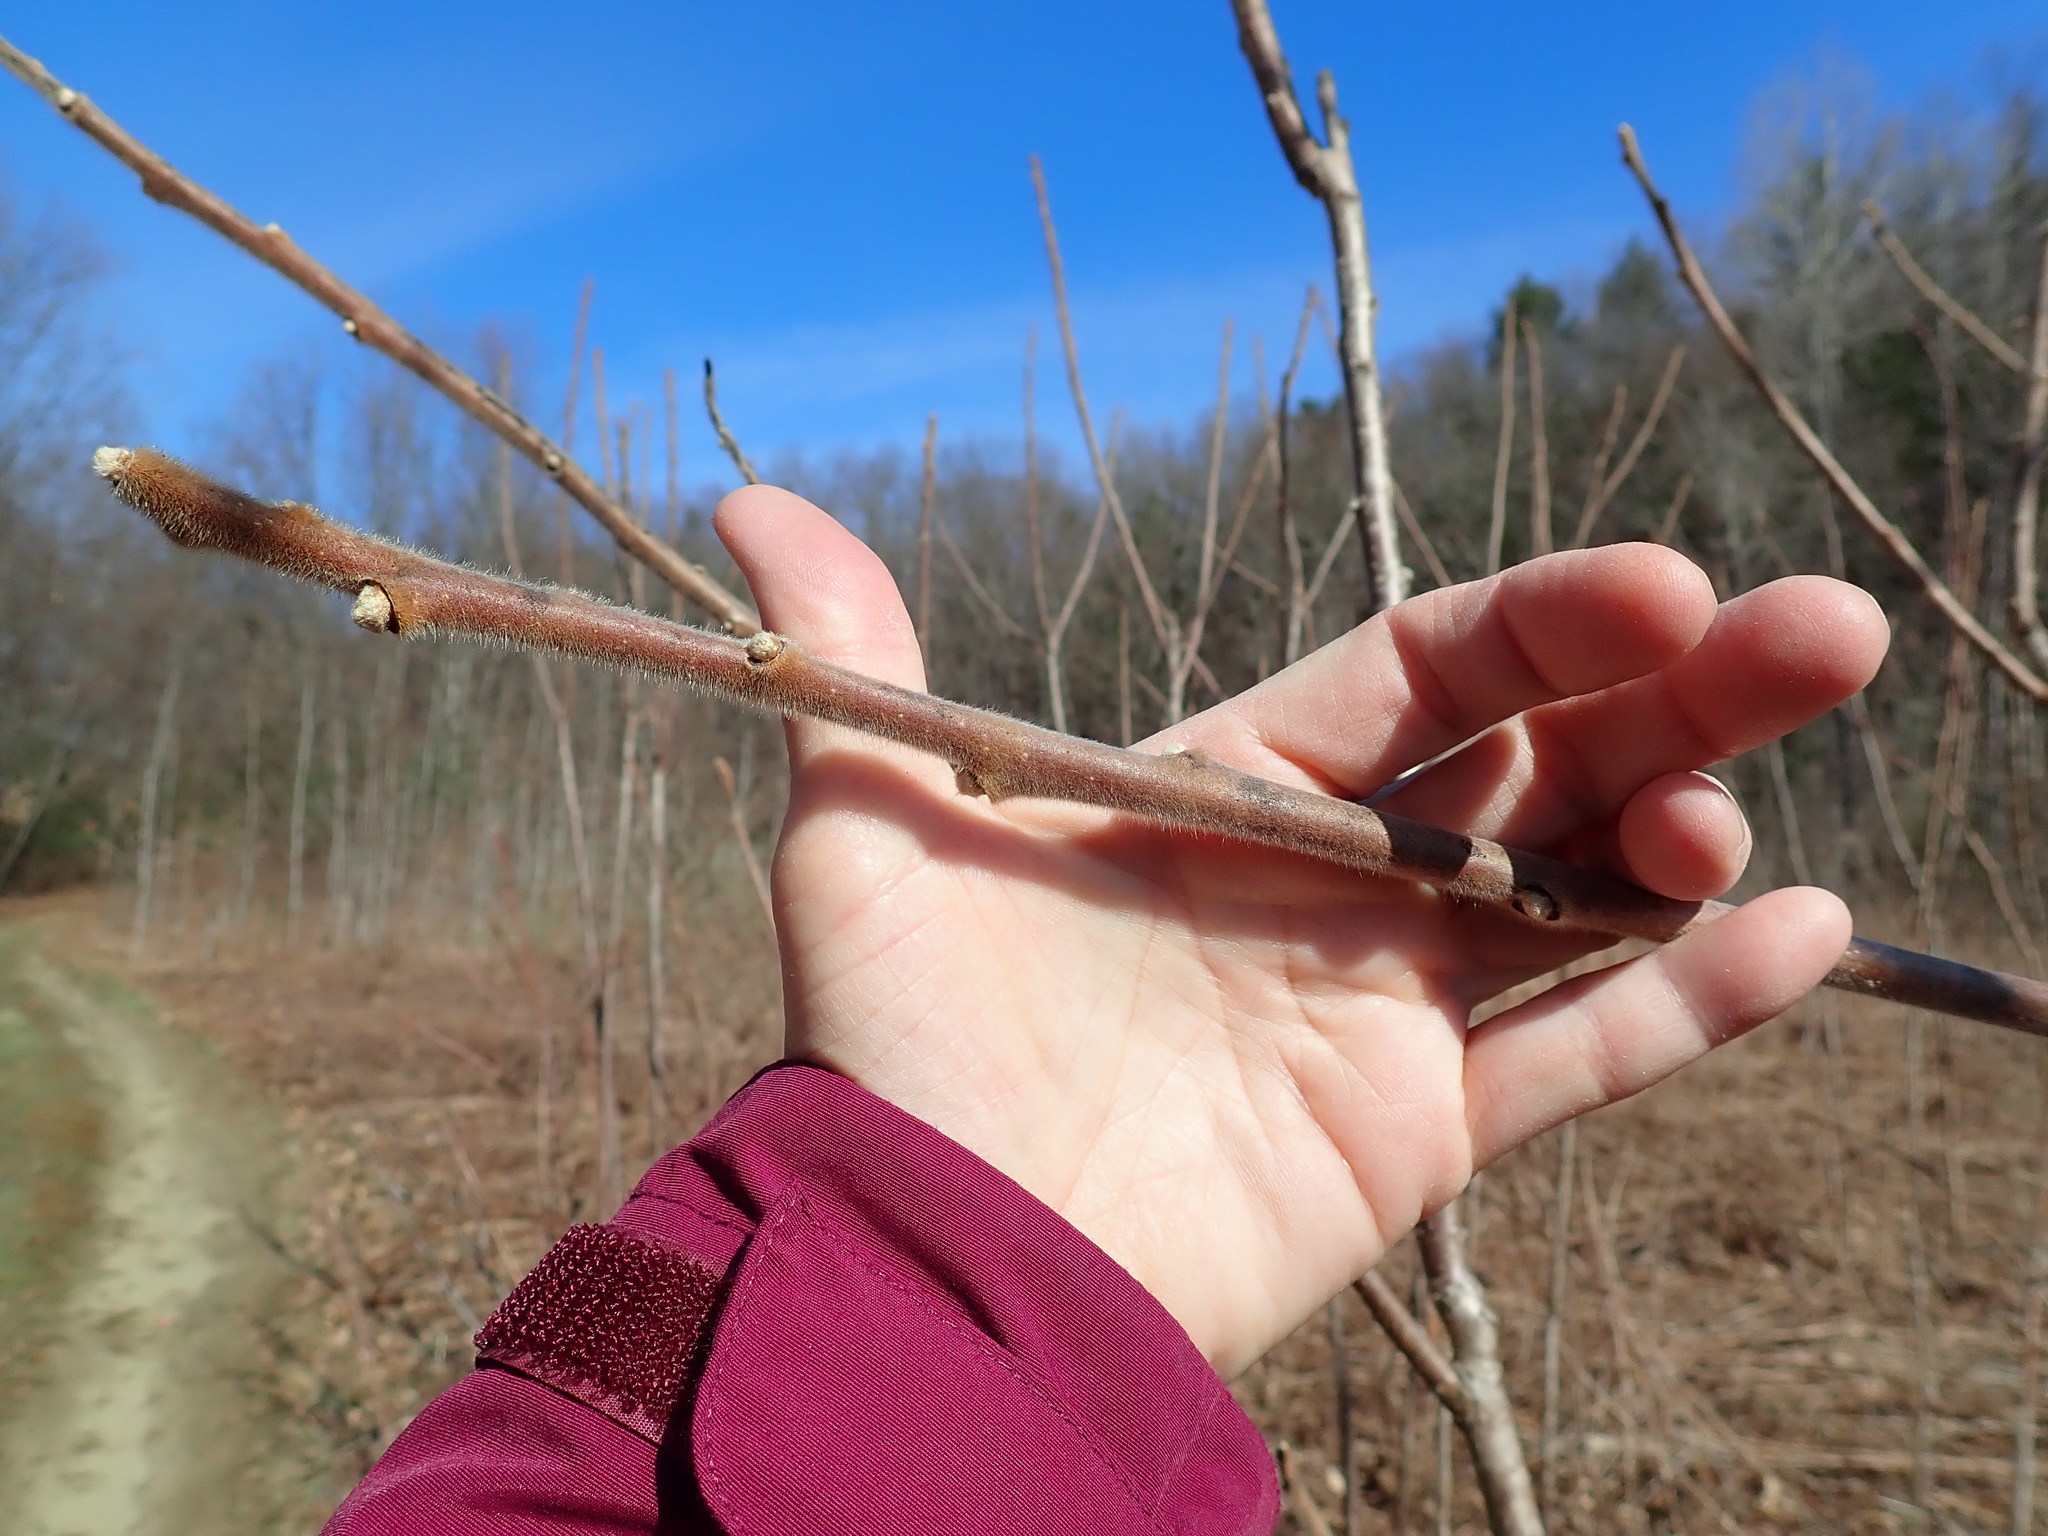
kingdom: Plantae
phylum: Tracheophyta
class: Magnoliopsida
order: Sapindales
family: Anacardiaceae
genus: Rhus
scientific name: Rhus typhina
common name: Staghorn sumac
